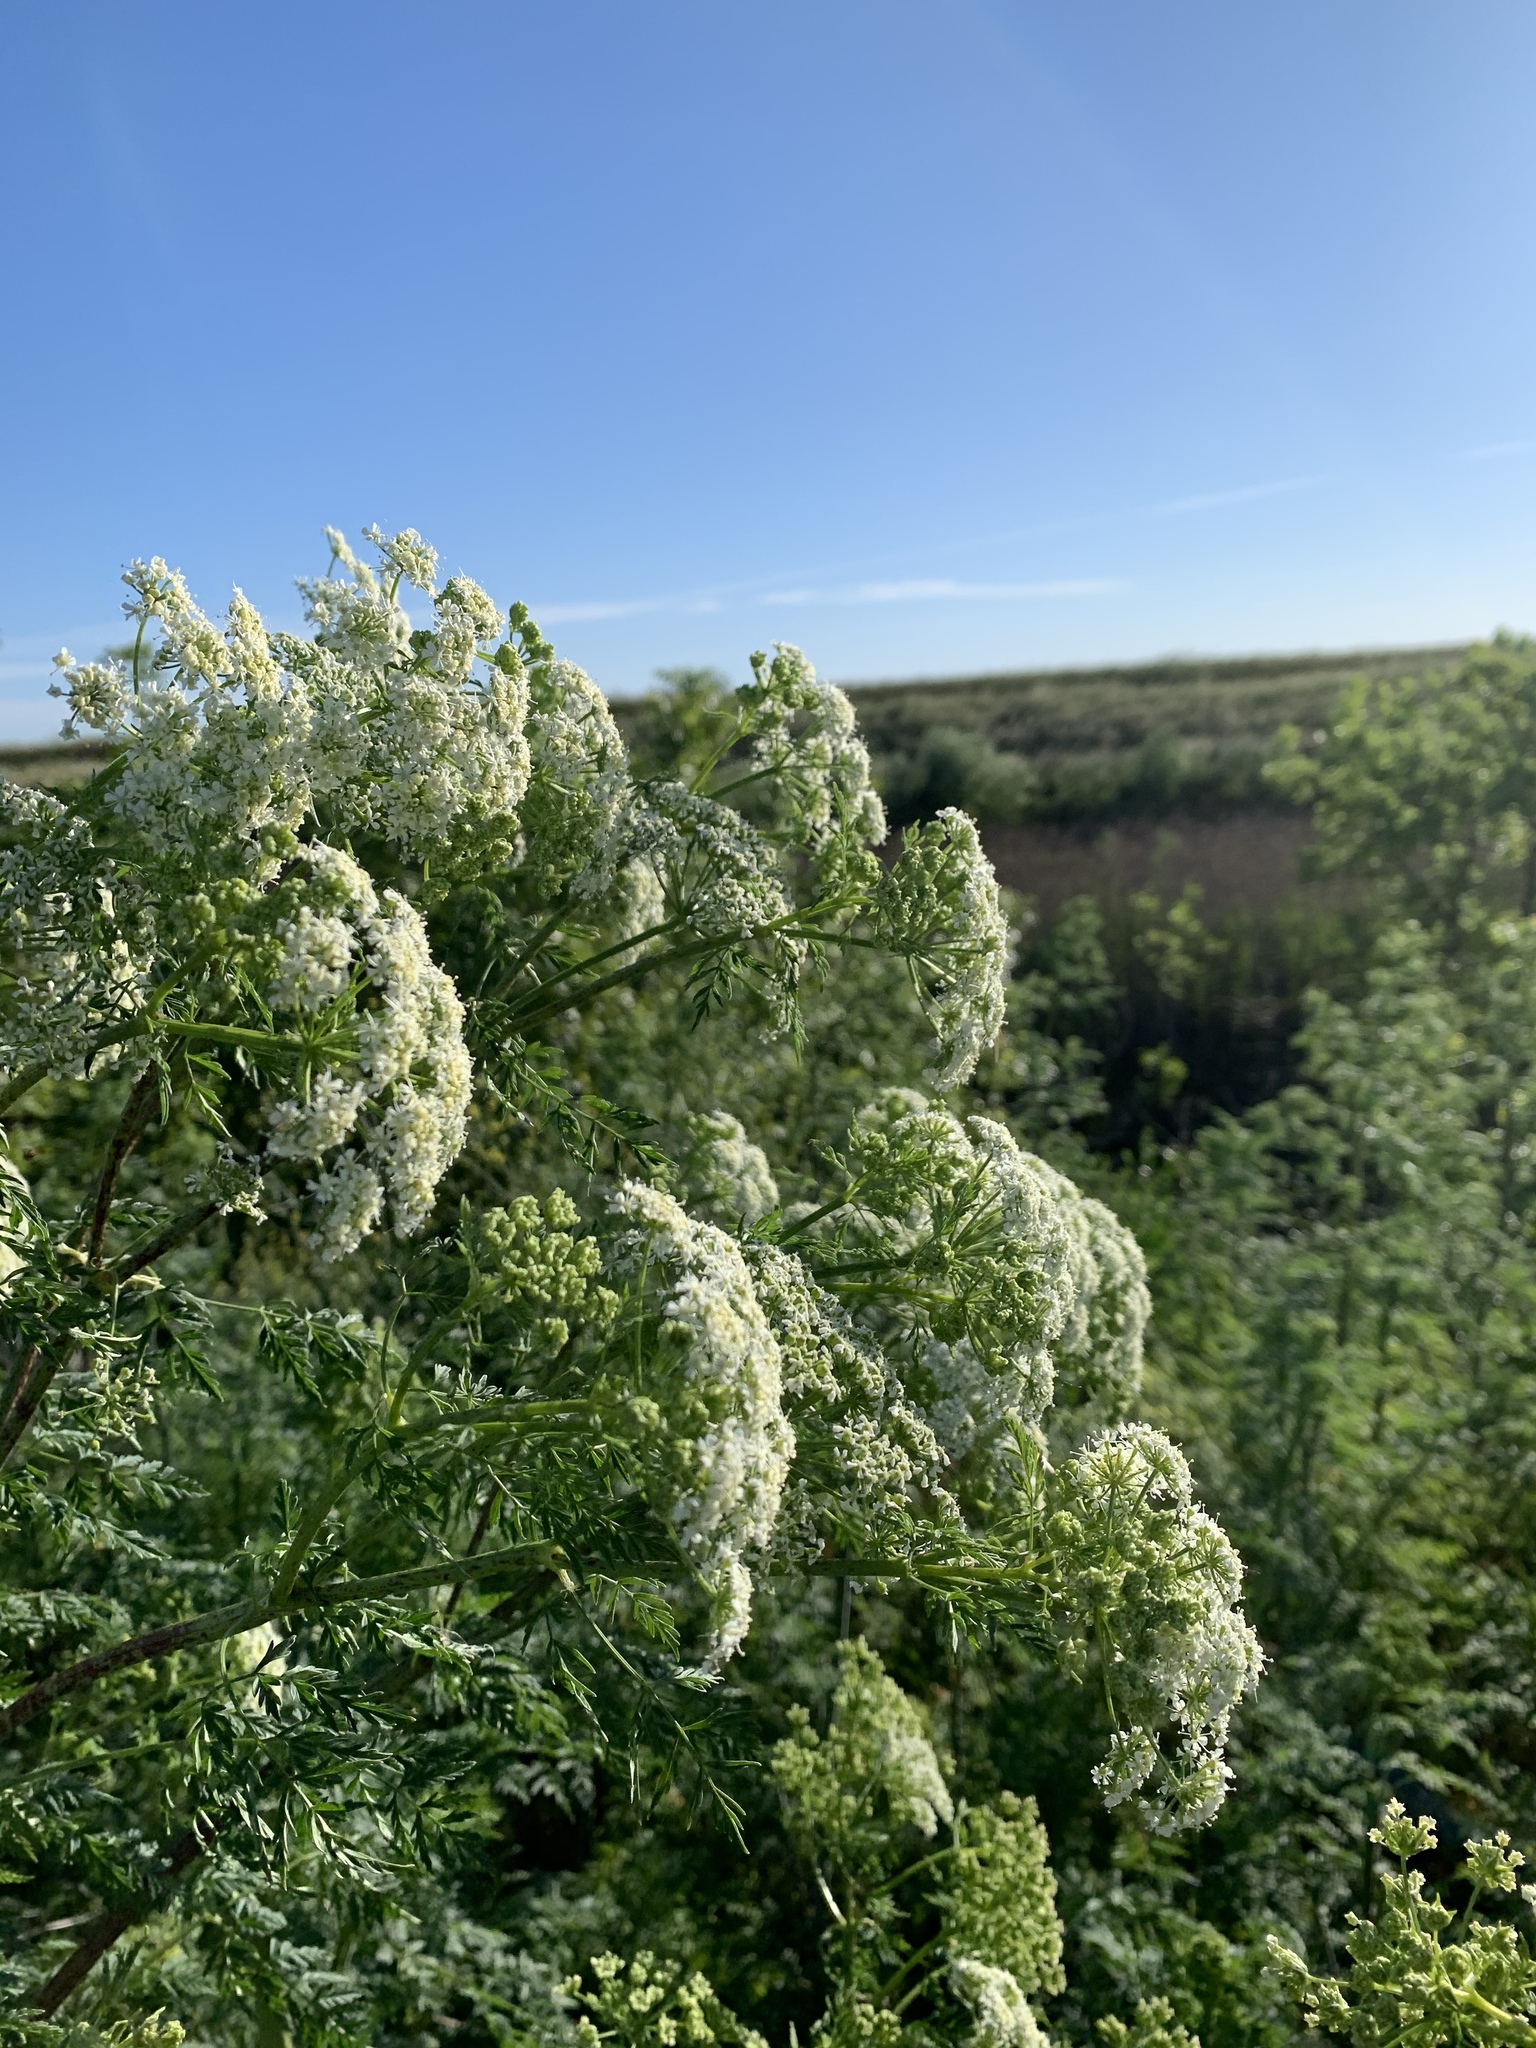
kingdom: Plantae
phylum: Tracheophyta
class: Magnoliopsida
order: Apiales
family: Apiaceae
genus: Conium
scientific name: Conium maculatum
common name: Hemlock
